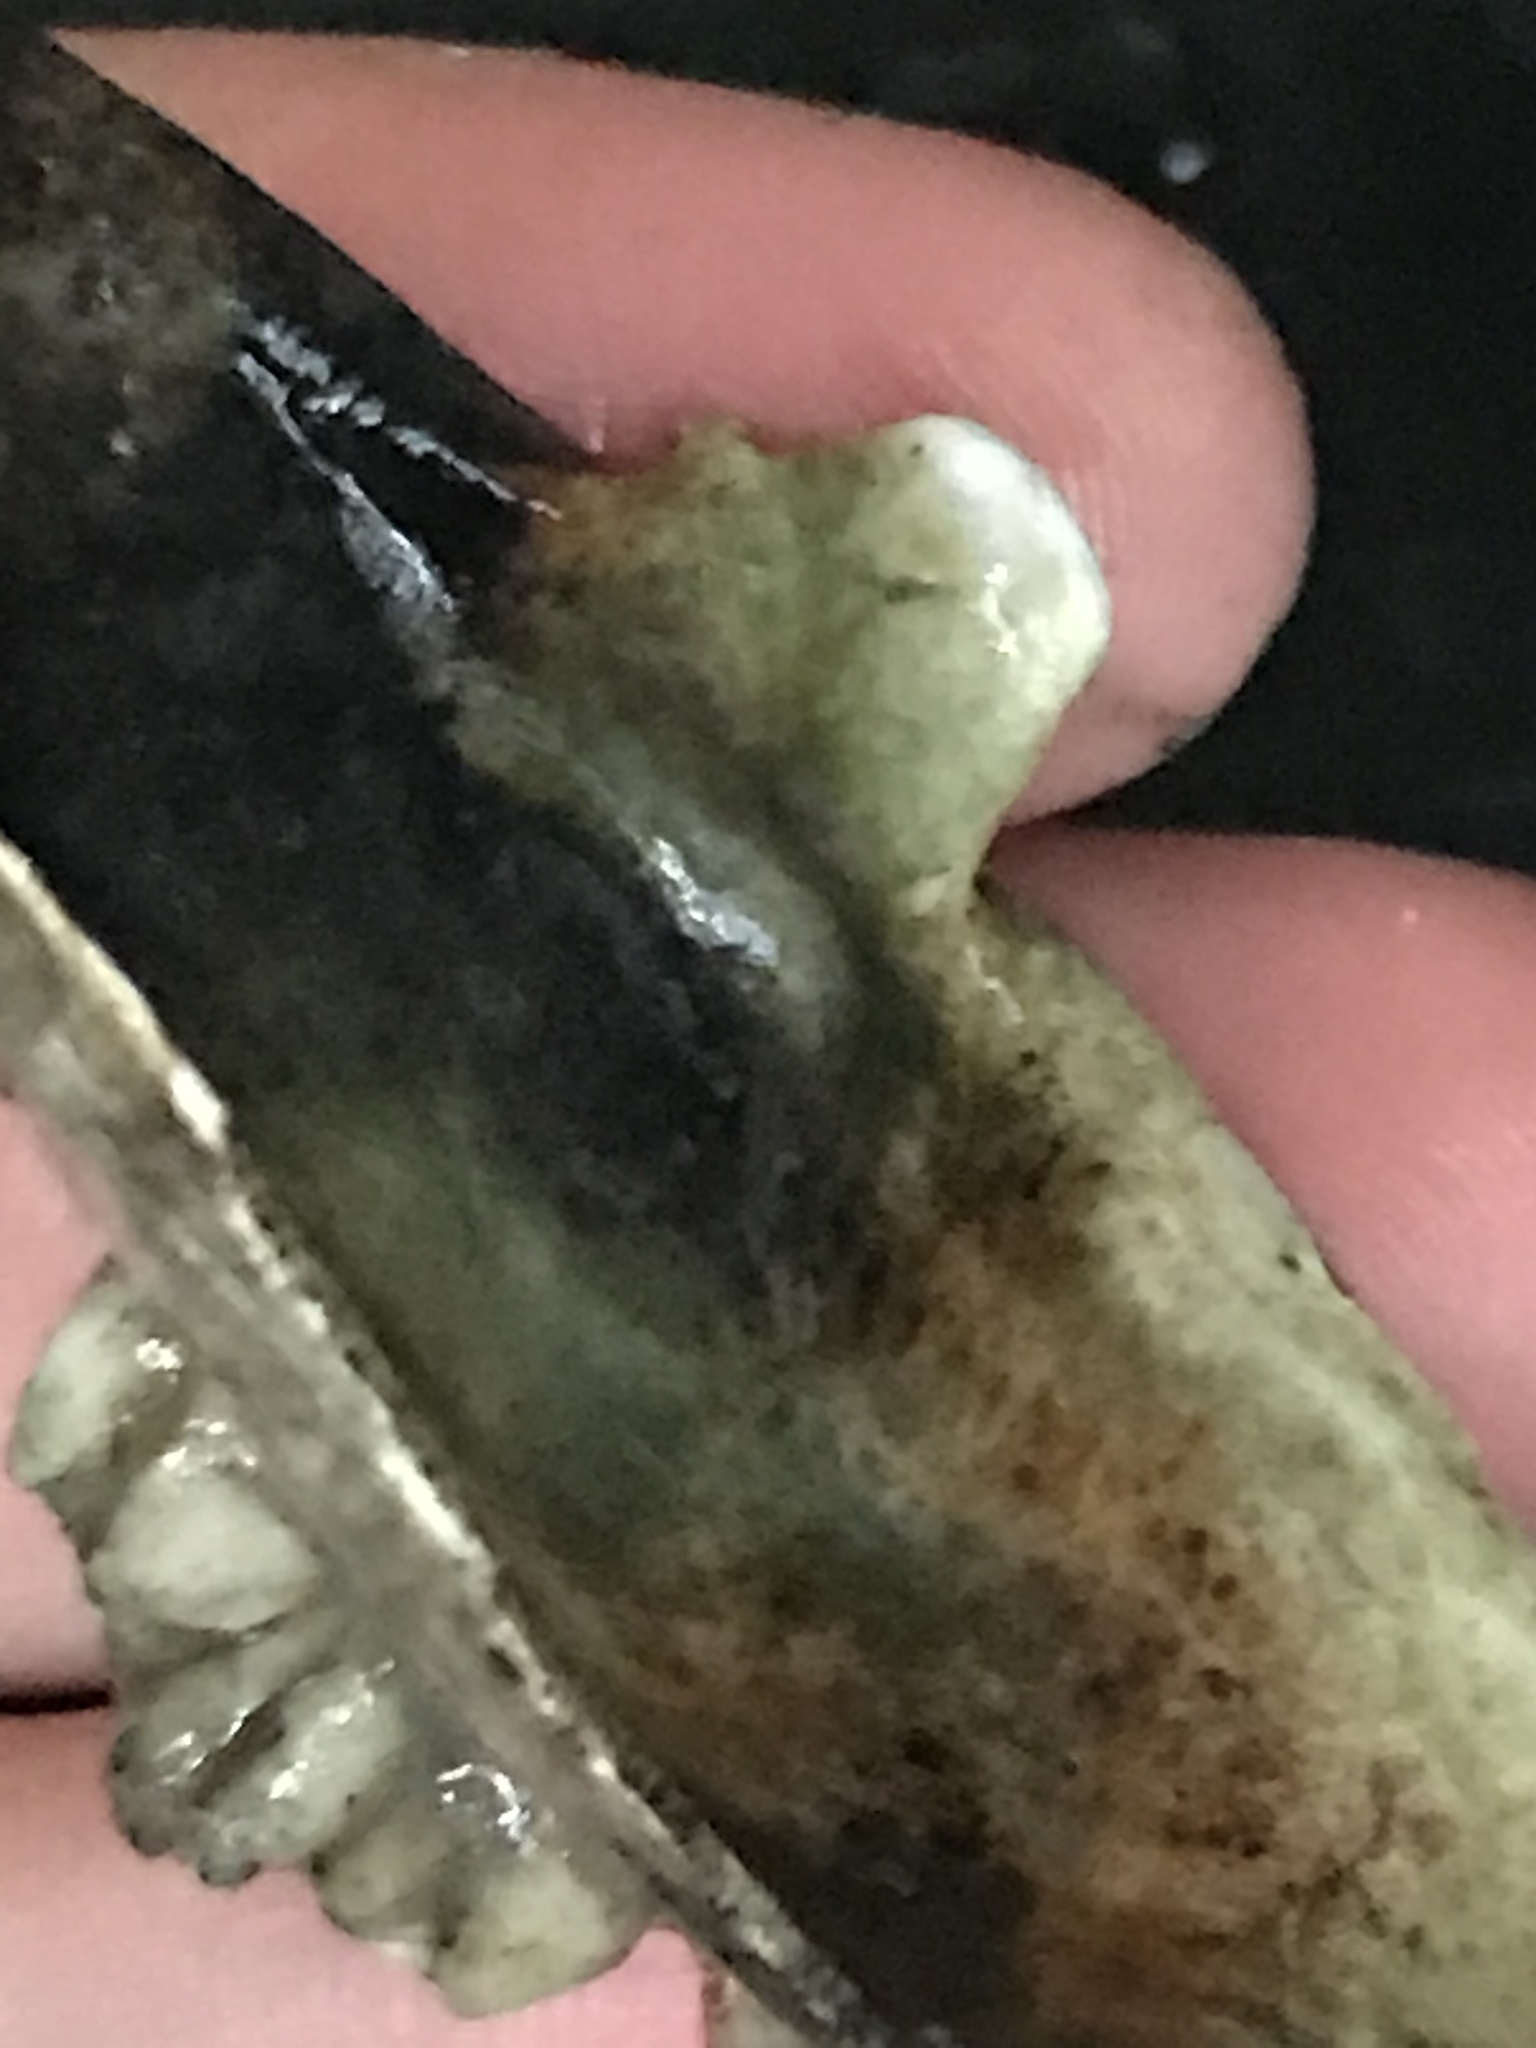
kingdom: Animalia
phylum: Mollusca
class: Bivalvia
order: Myida
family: Myidae
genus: Mya
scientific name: Mya arenaria
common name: Soft-shelled clam
